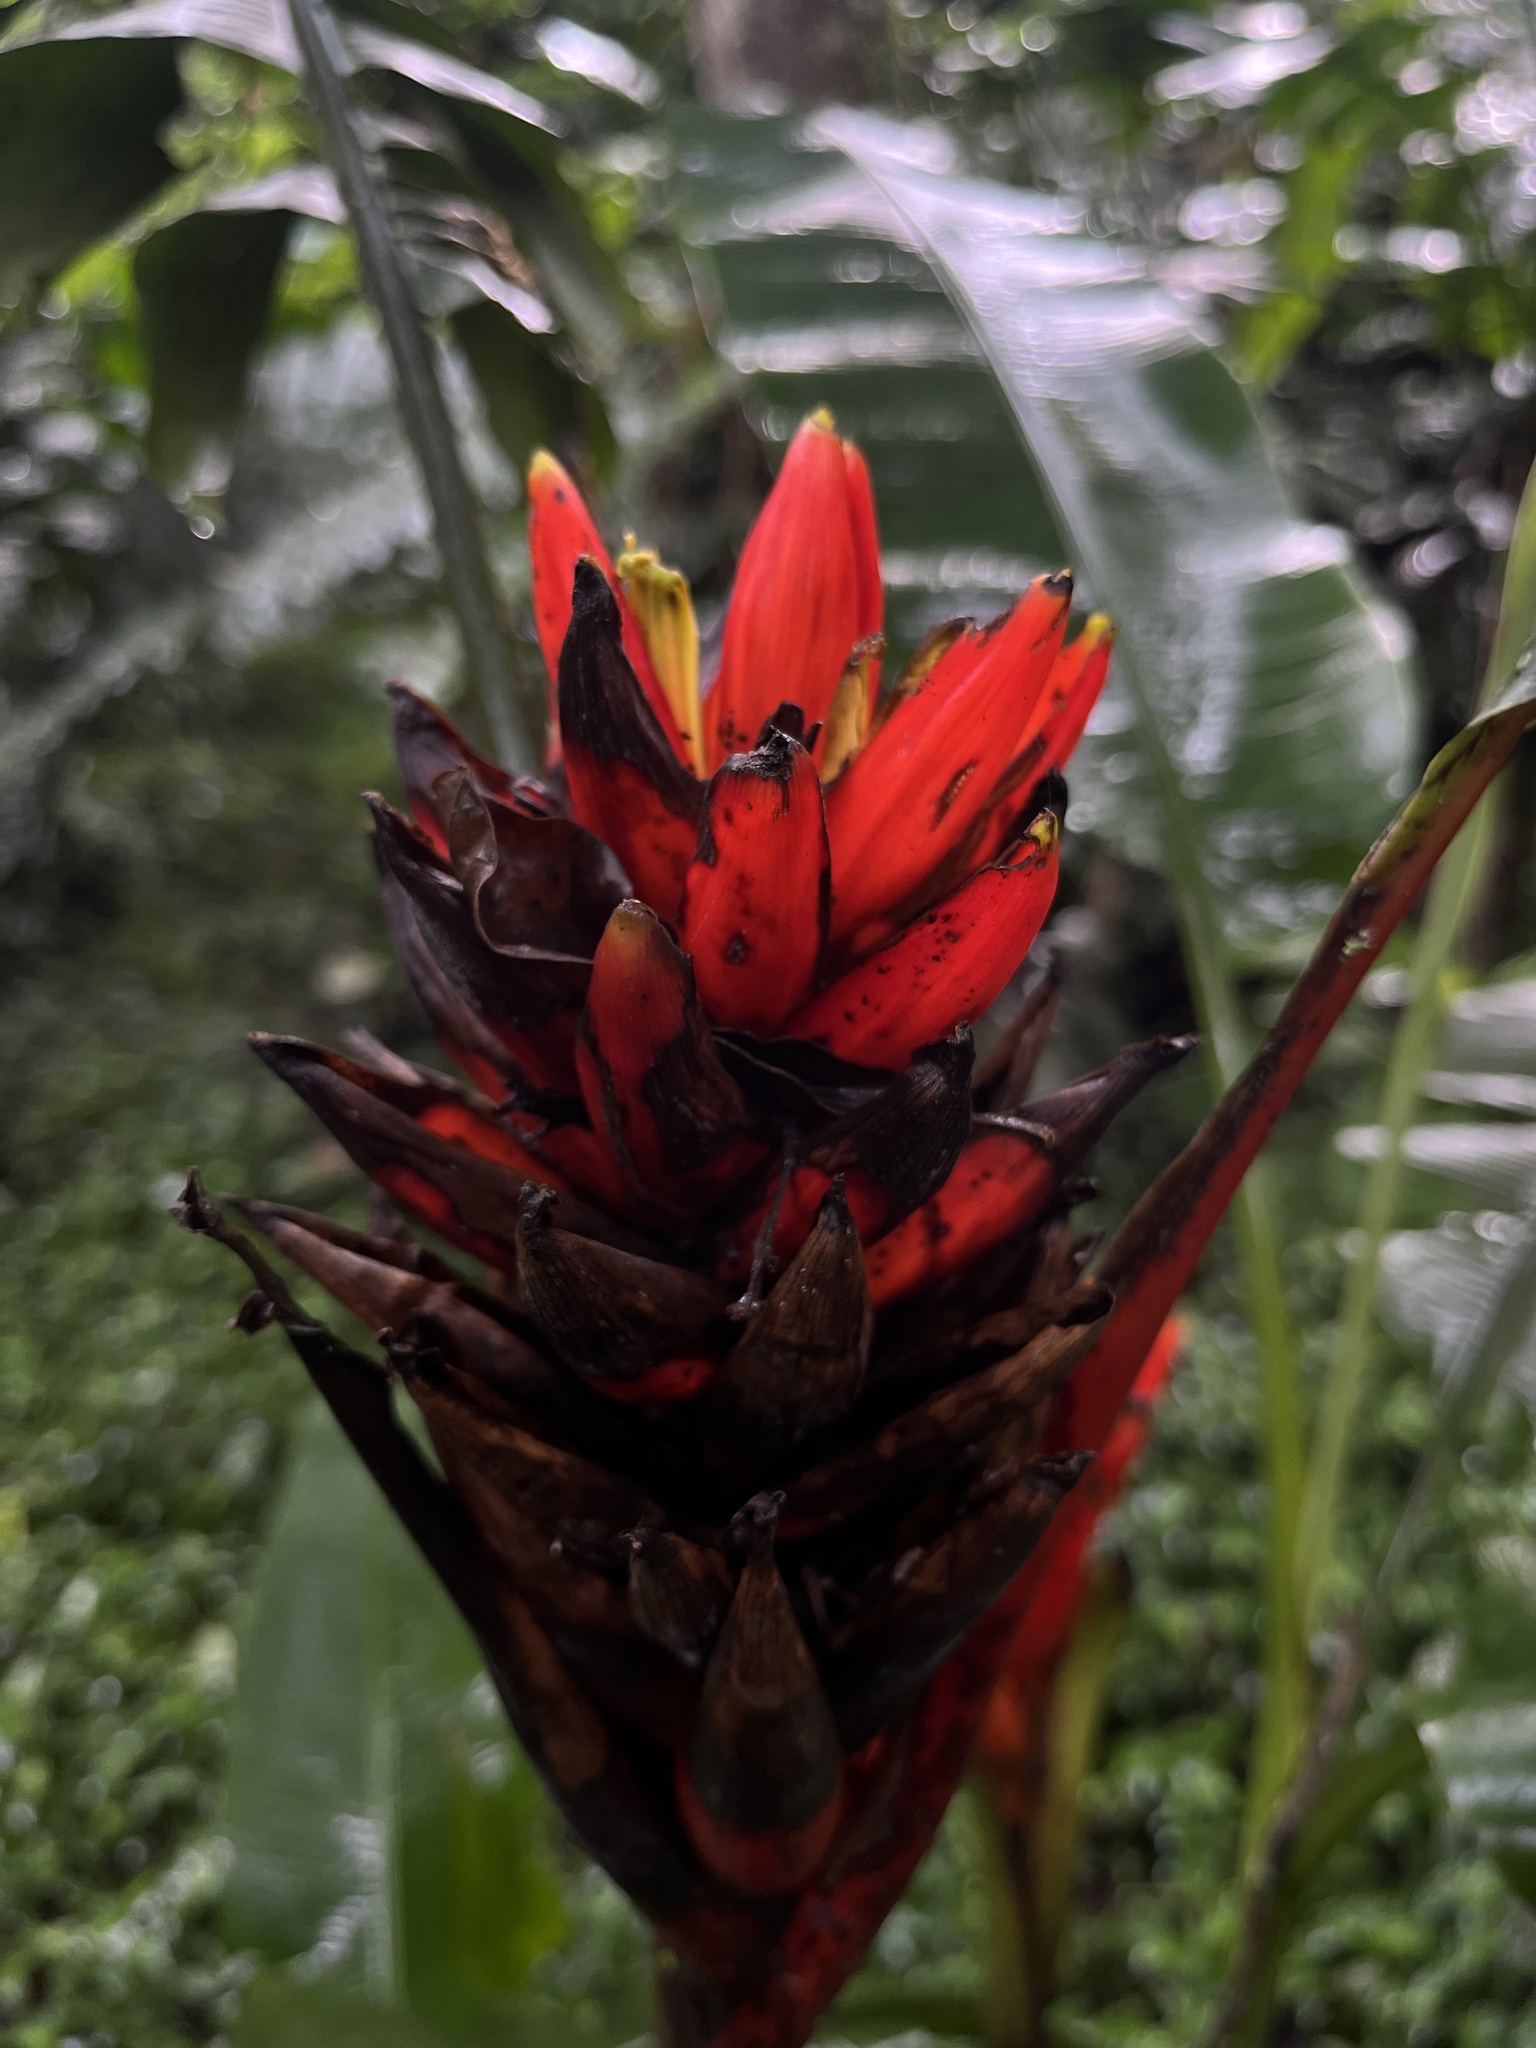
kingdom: Plantae
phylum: Tracheophyta
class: Liliopsida
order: Zingiberales
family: Musaceae
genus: Musa
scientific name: Musa coccinea
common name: Scarlet banana
